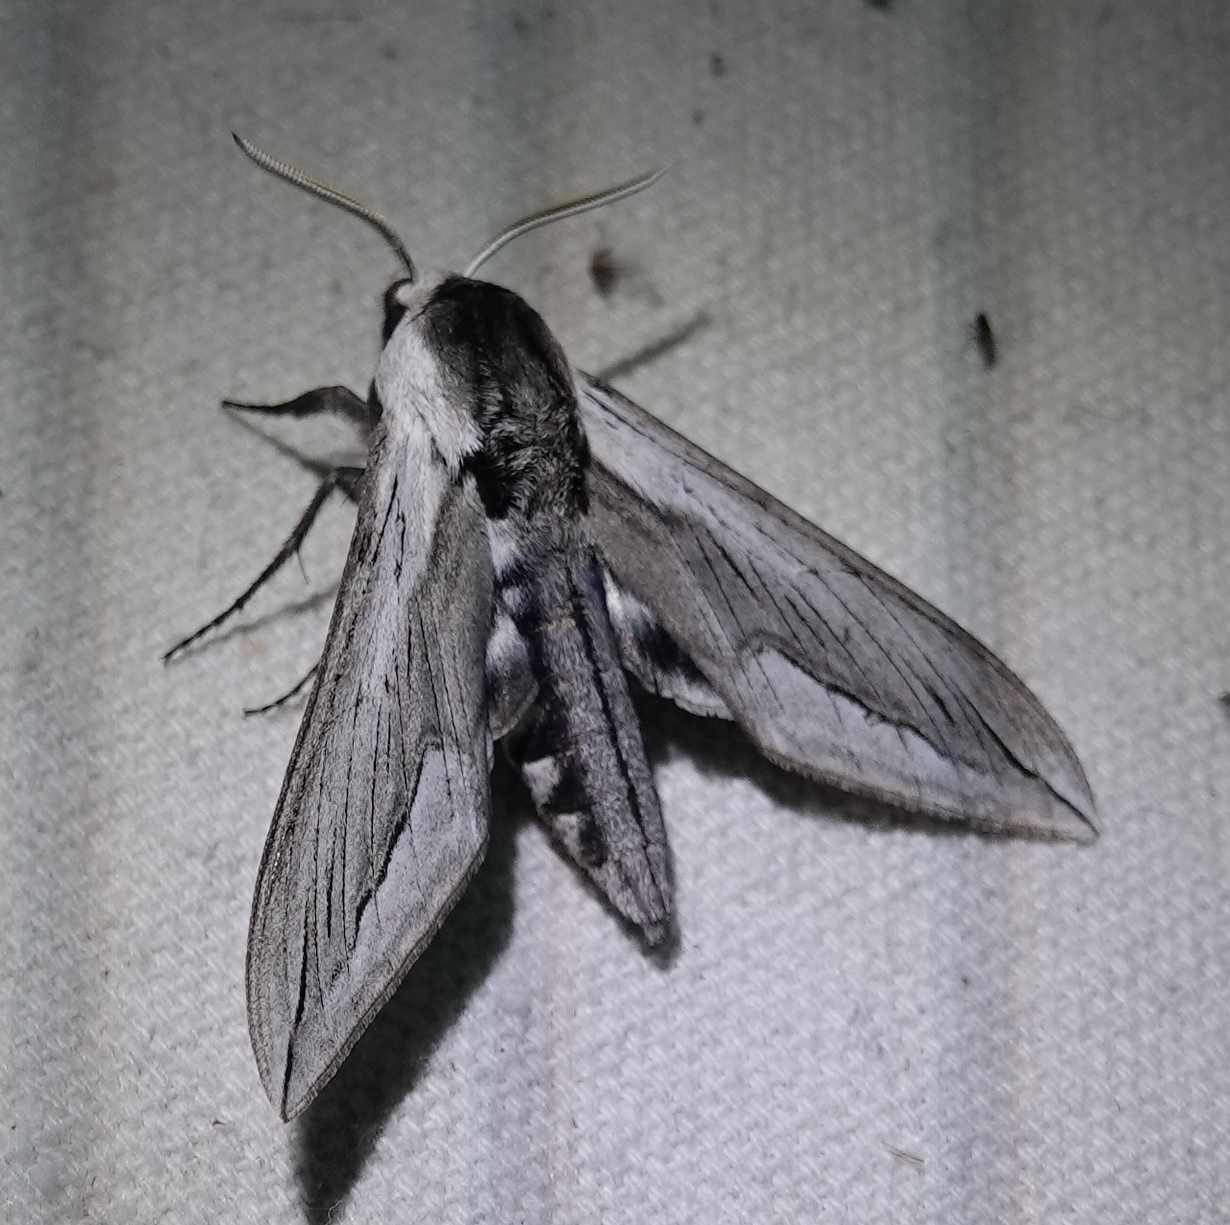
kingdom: Animalia
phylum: Arthropoda
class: Insecta
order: Lepidoptera
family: Sphingidae
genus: Sphinx
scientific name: Sphinx vashti
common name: Snowberry sphinx
